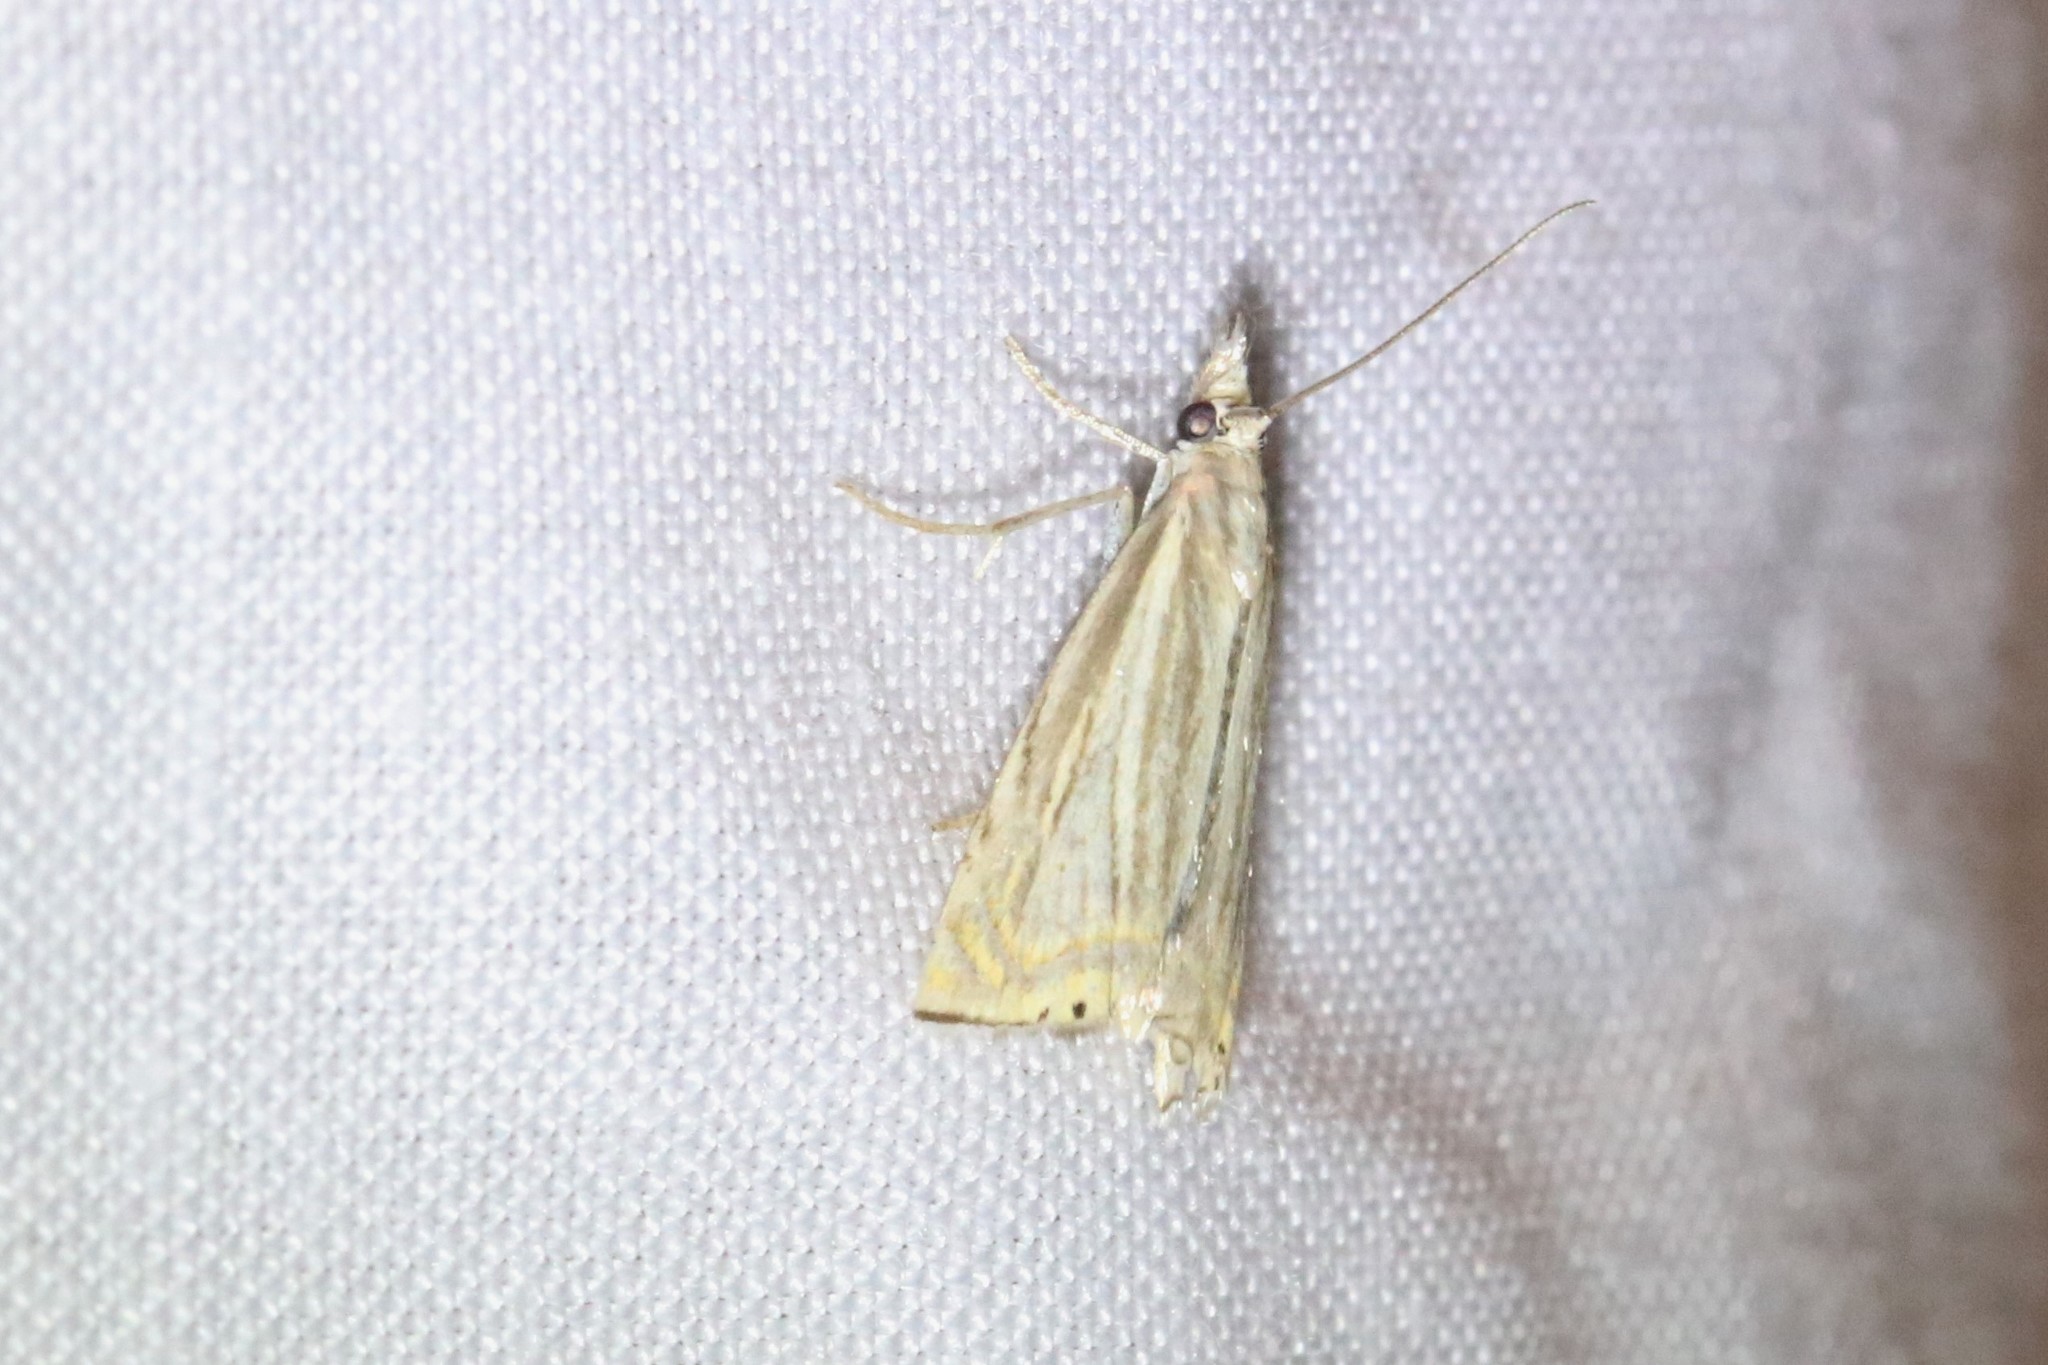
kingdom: Animalia
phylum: Arthropoda
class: Insecta
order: Lepidoptera
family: Crambidae
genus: Chrysoteuchia
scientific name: Chrysoteuchia topiarius
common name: Topiary grass-veneer
